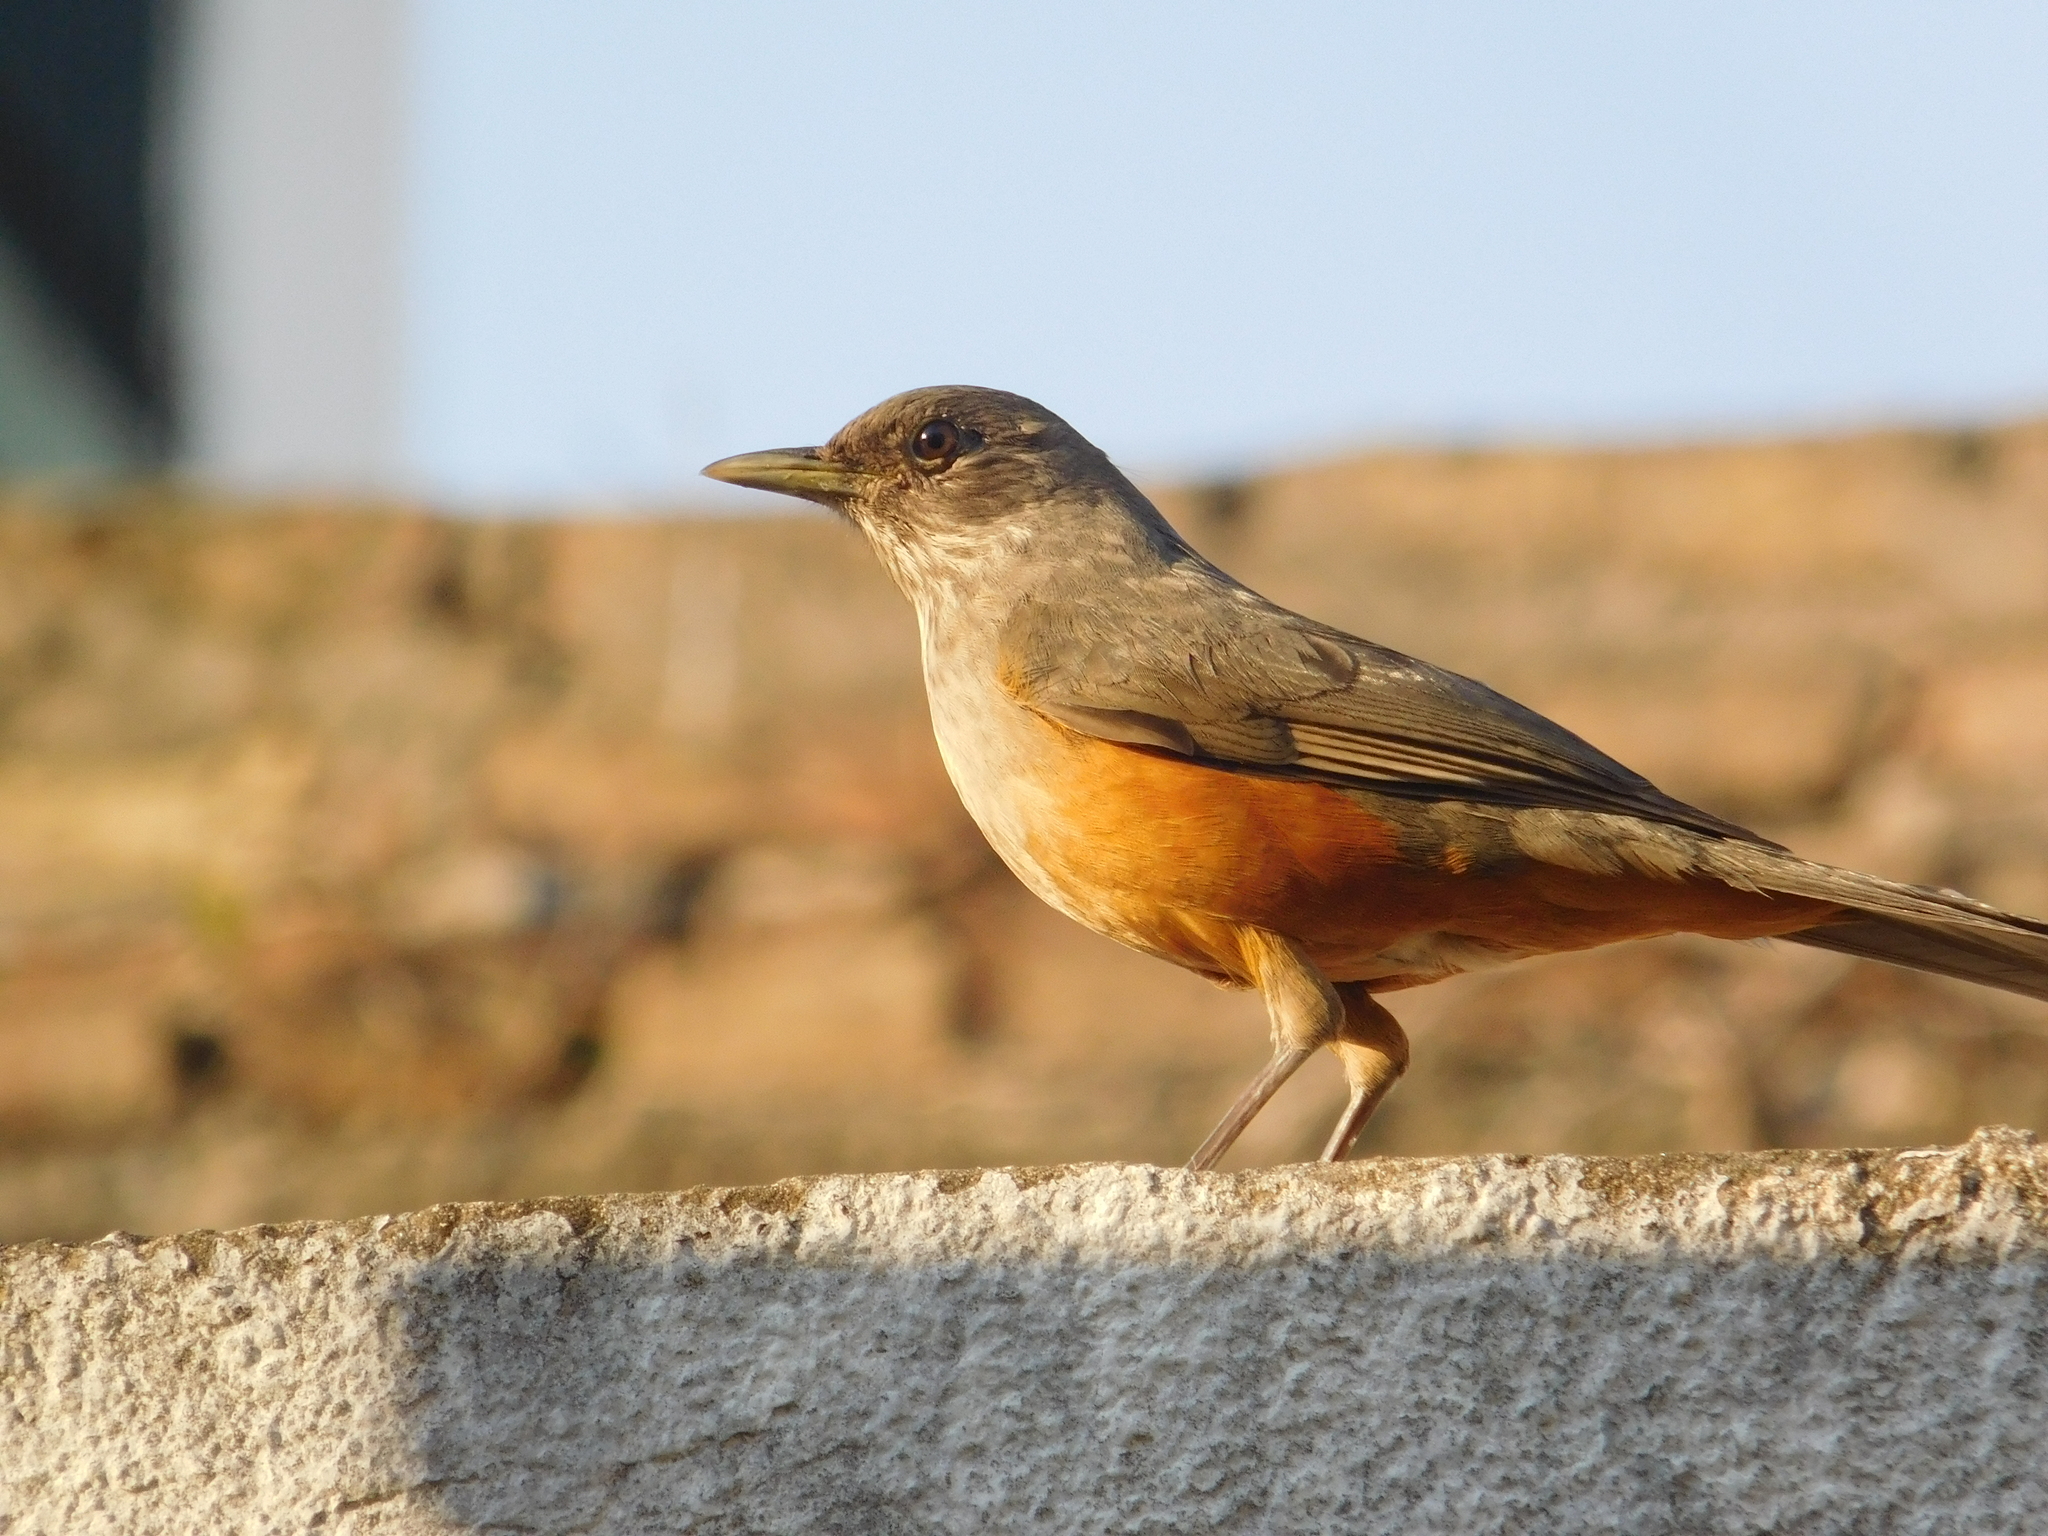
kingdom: Animalia
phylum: Chordata
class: Aves
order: Passeriformes
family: Turdidae
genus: Turdus
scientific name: Turdus rufiventris
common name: Rufous-bellied thrush
